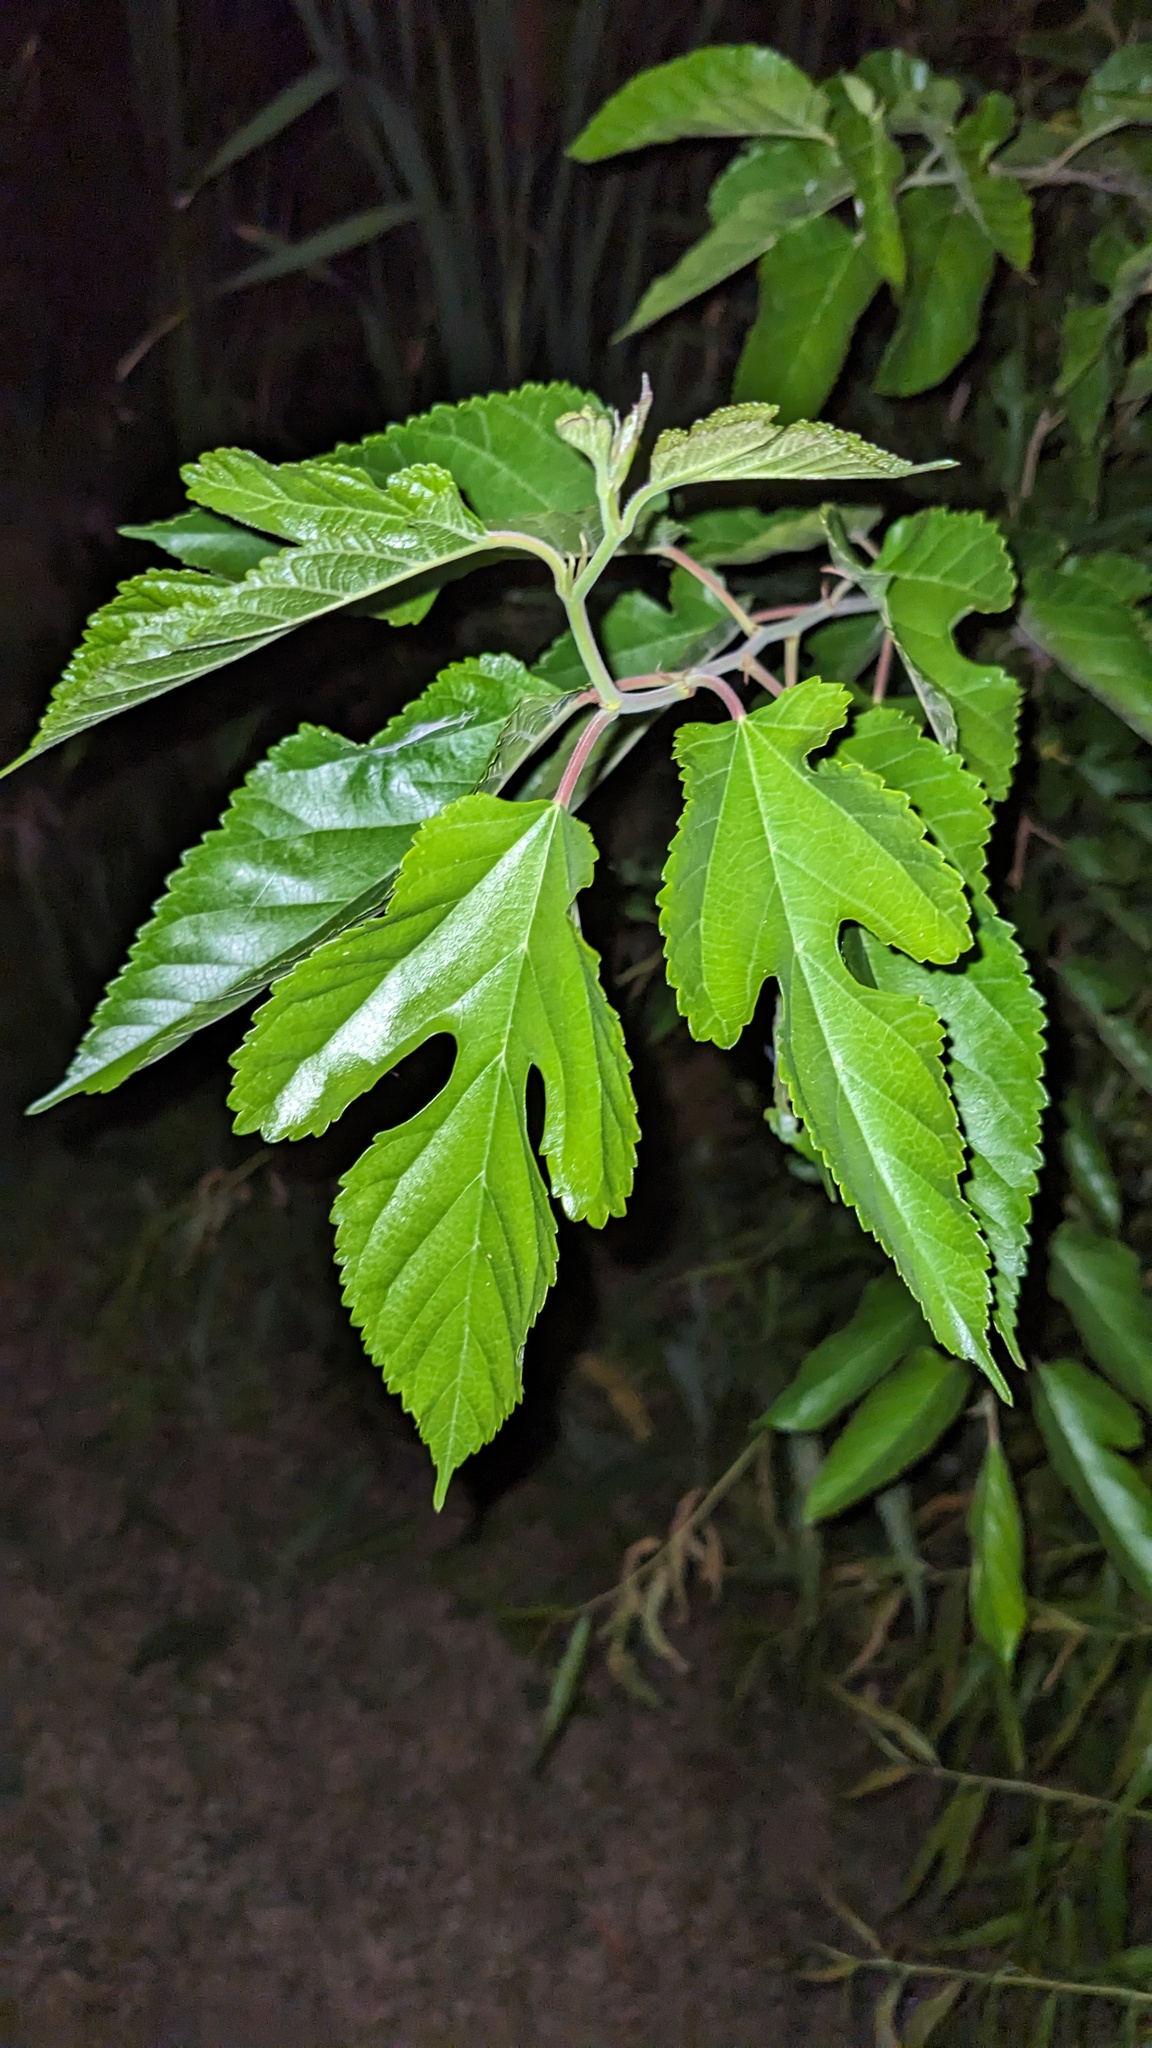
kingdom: Plantae
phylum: Tracheophyta
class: Magnoliopsida
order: Rosales
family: Moraceae
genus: Morus
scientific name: Morus alba
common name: White mulberry
